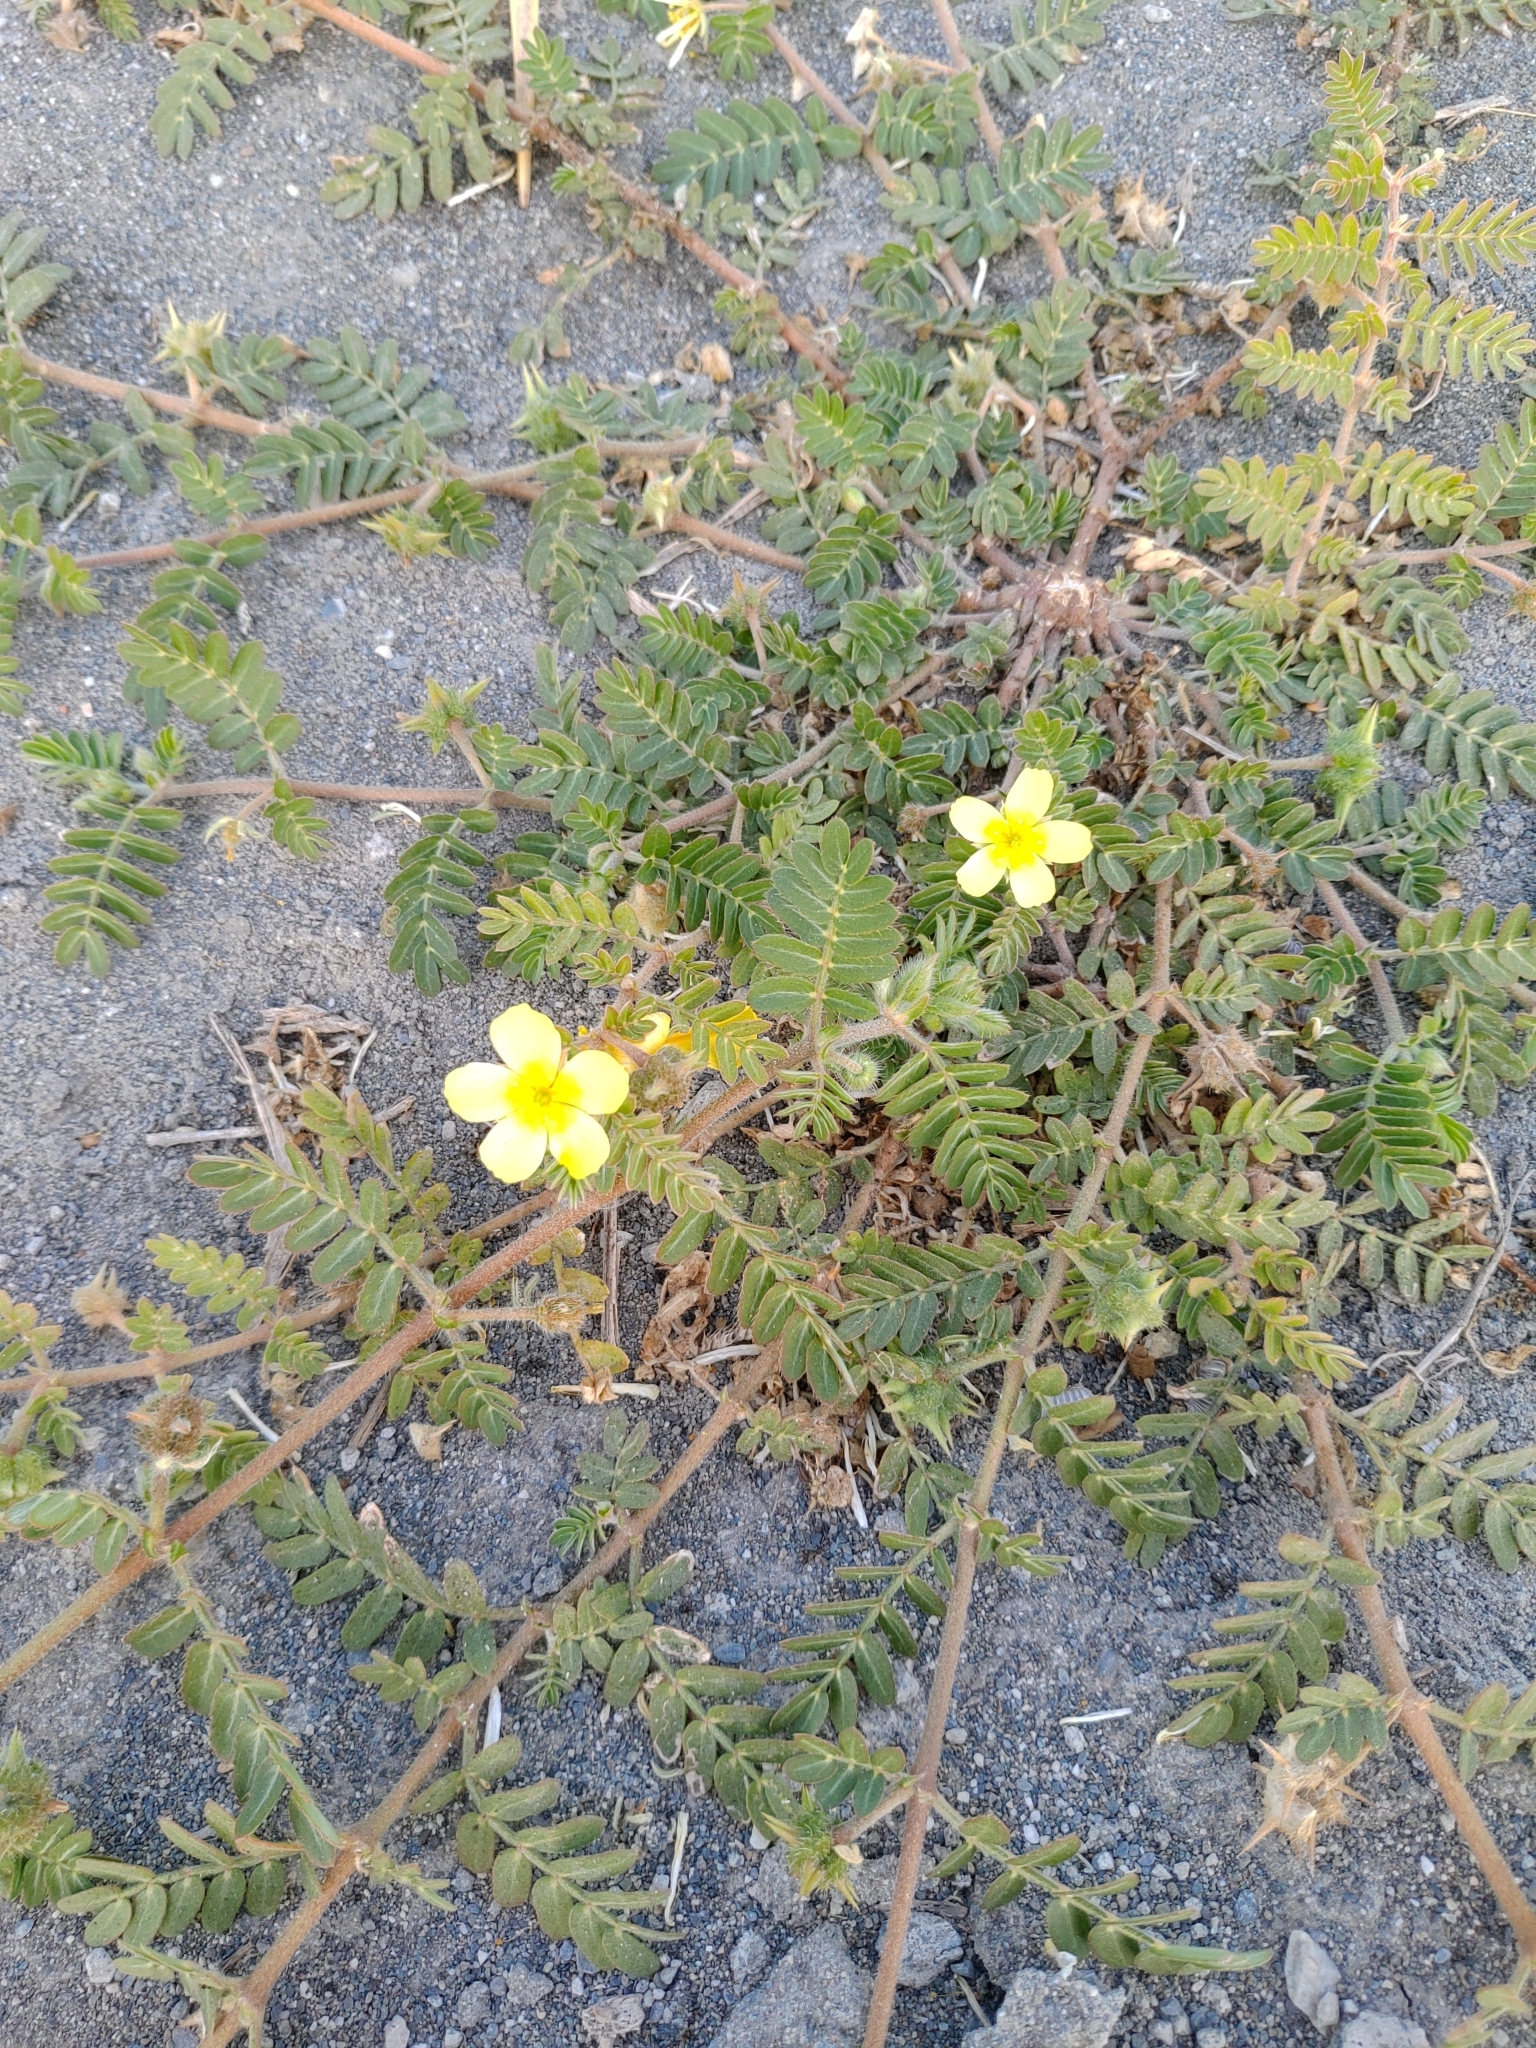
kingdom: Plantae
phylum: Tracheophyta
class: Magnoliopsida
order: Zygophyllales
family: Zygophyllaceae
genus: Tribulus
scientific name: Tribulus cistoides
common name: Jamaican feverplant
